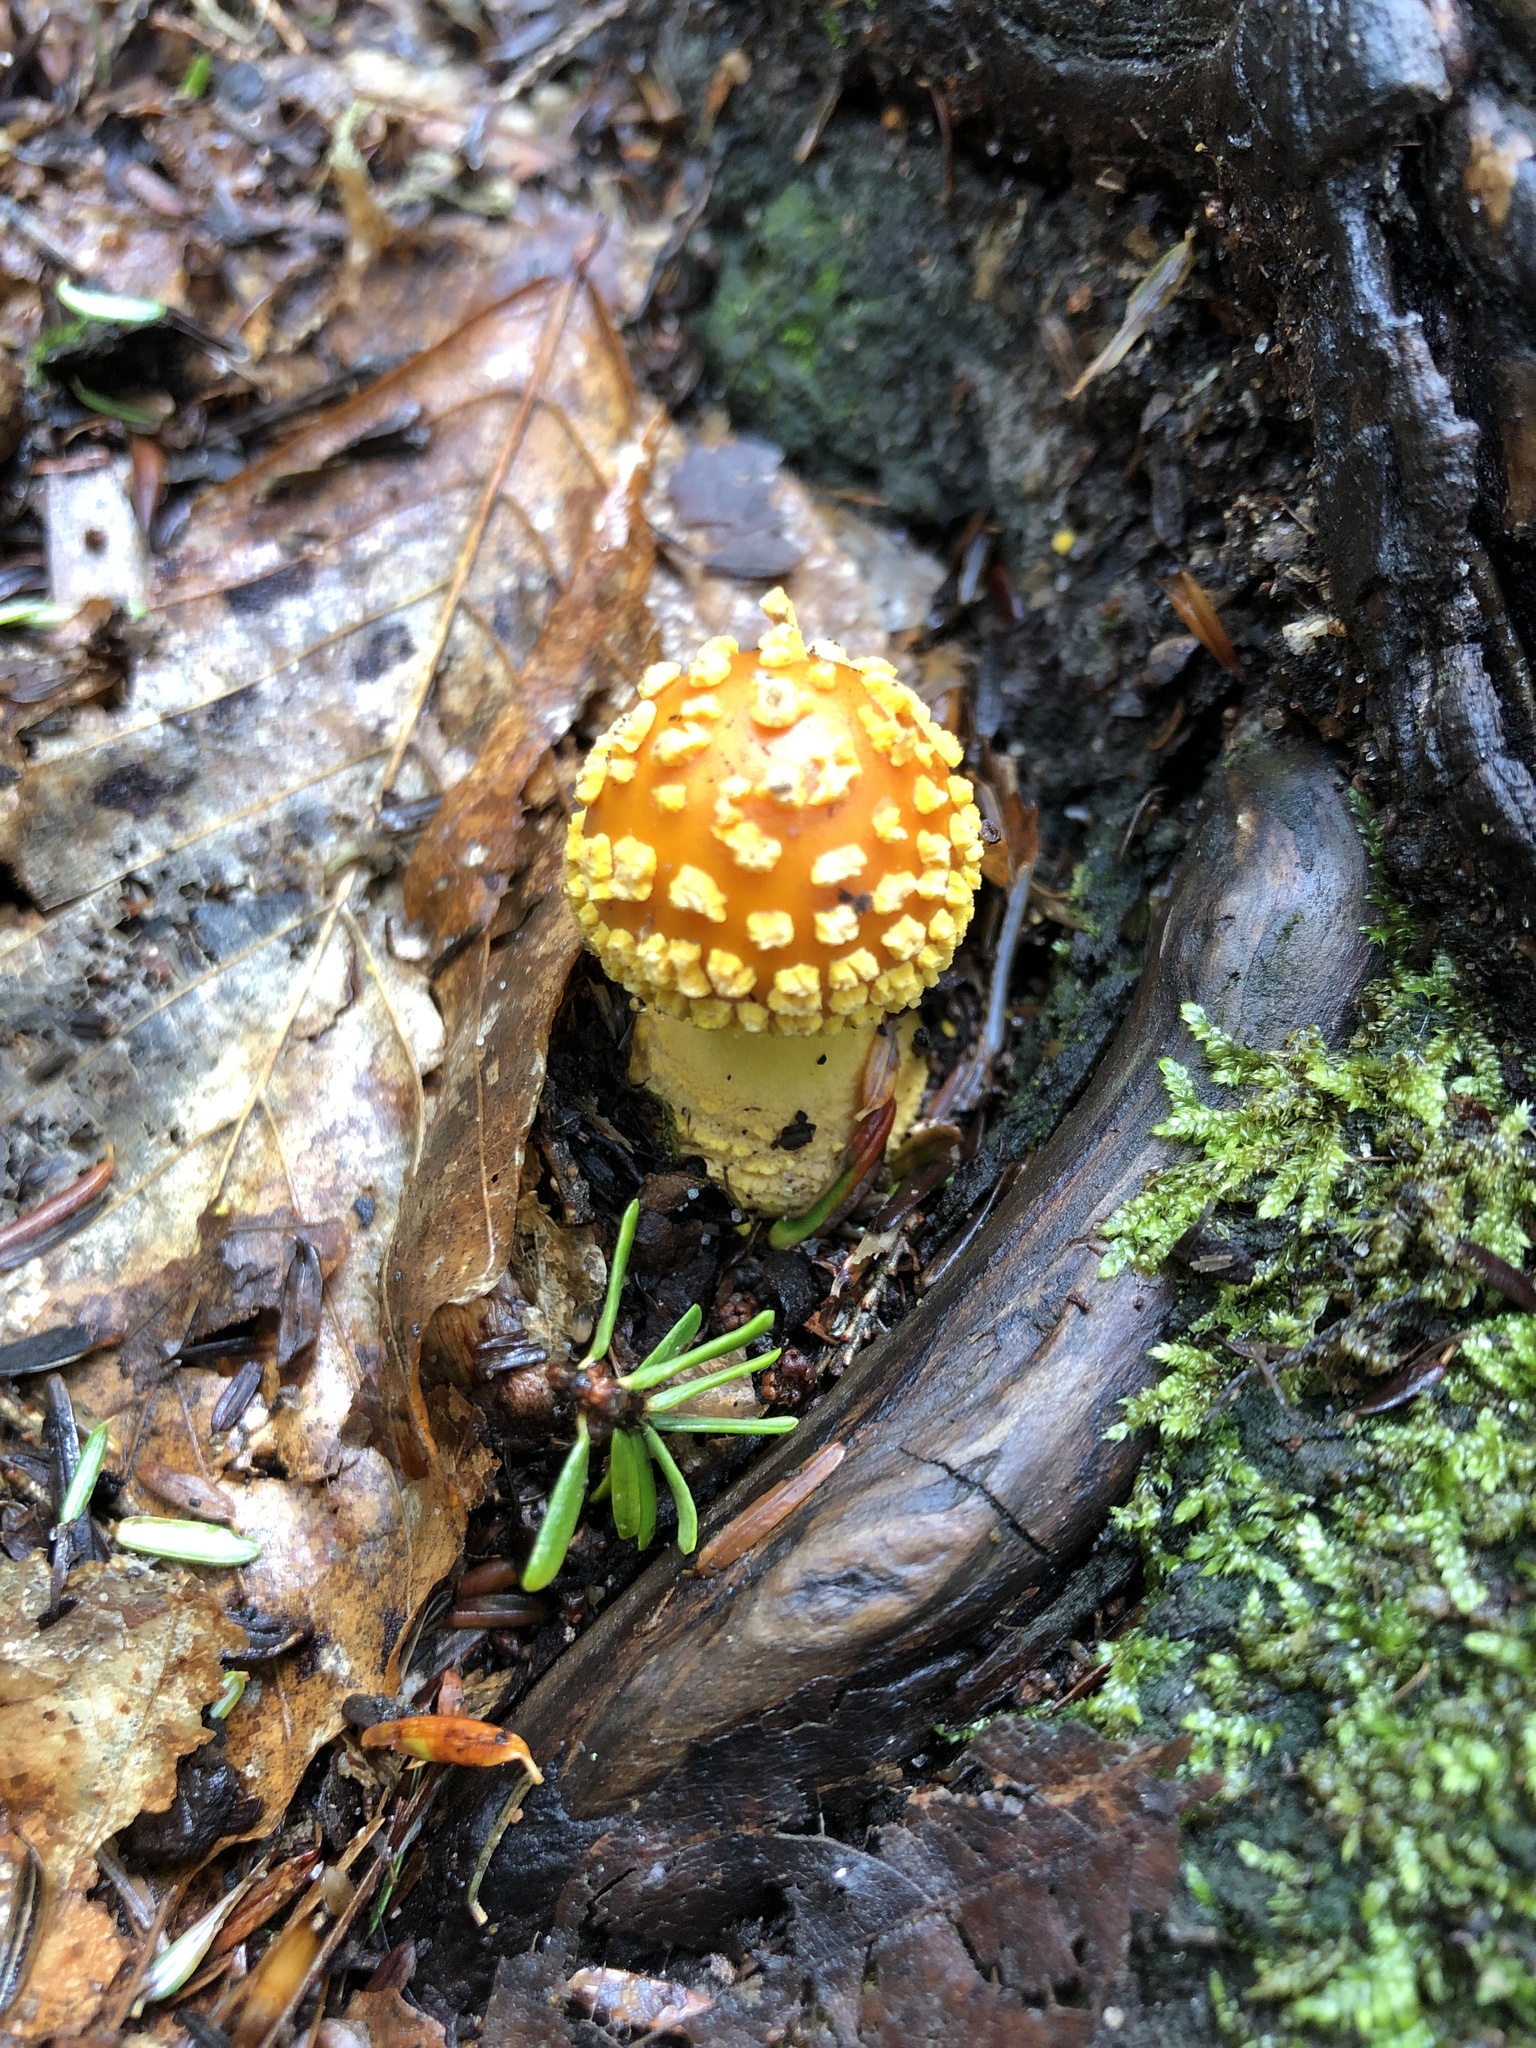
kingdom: Fungi
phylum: Basidiomycota
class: Agaricomycetes
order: Agaricales
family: Amanitaceae
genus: Amanita
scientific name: Amanita flavoconia
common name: Yellow patches
